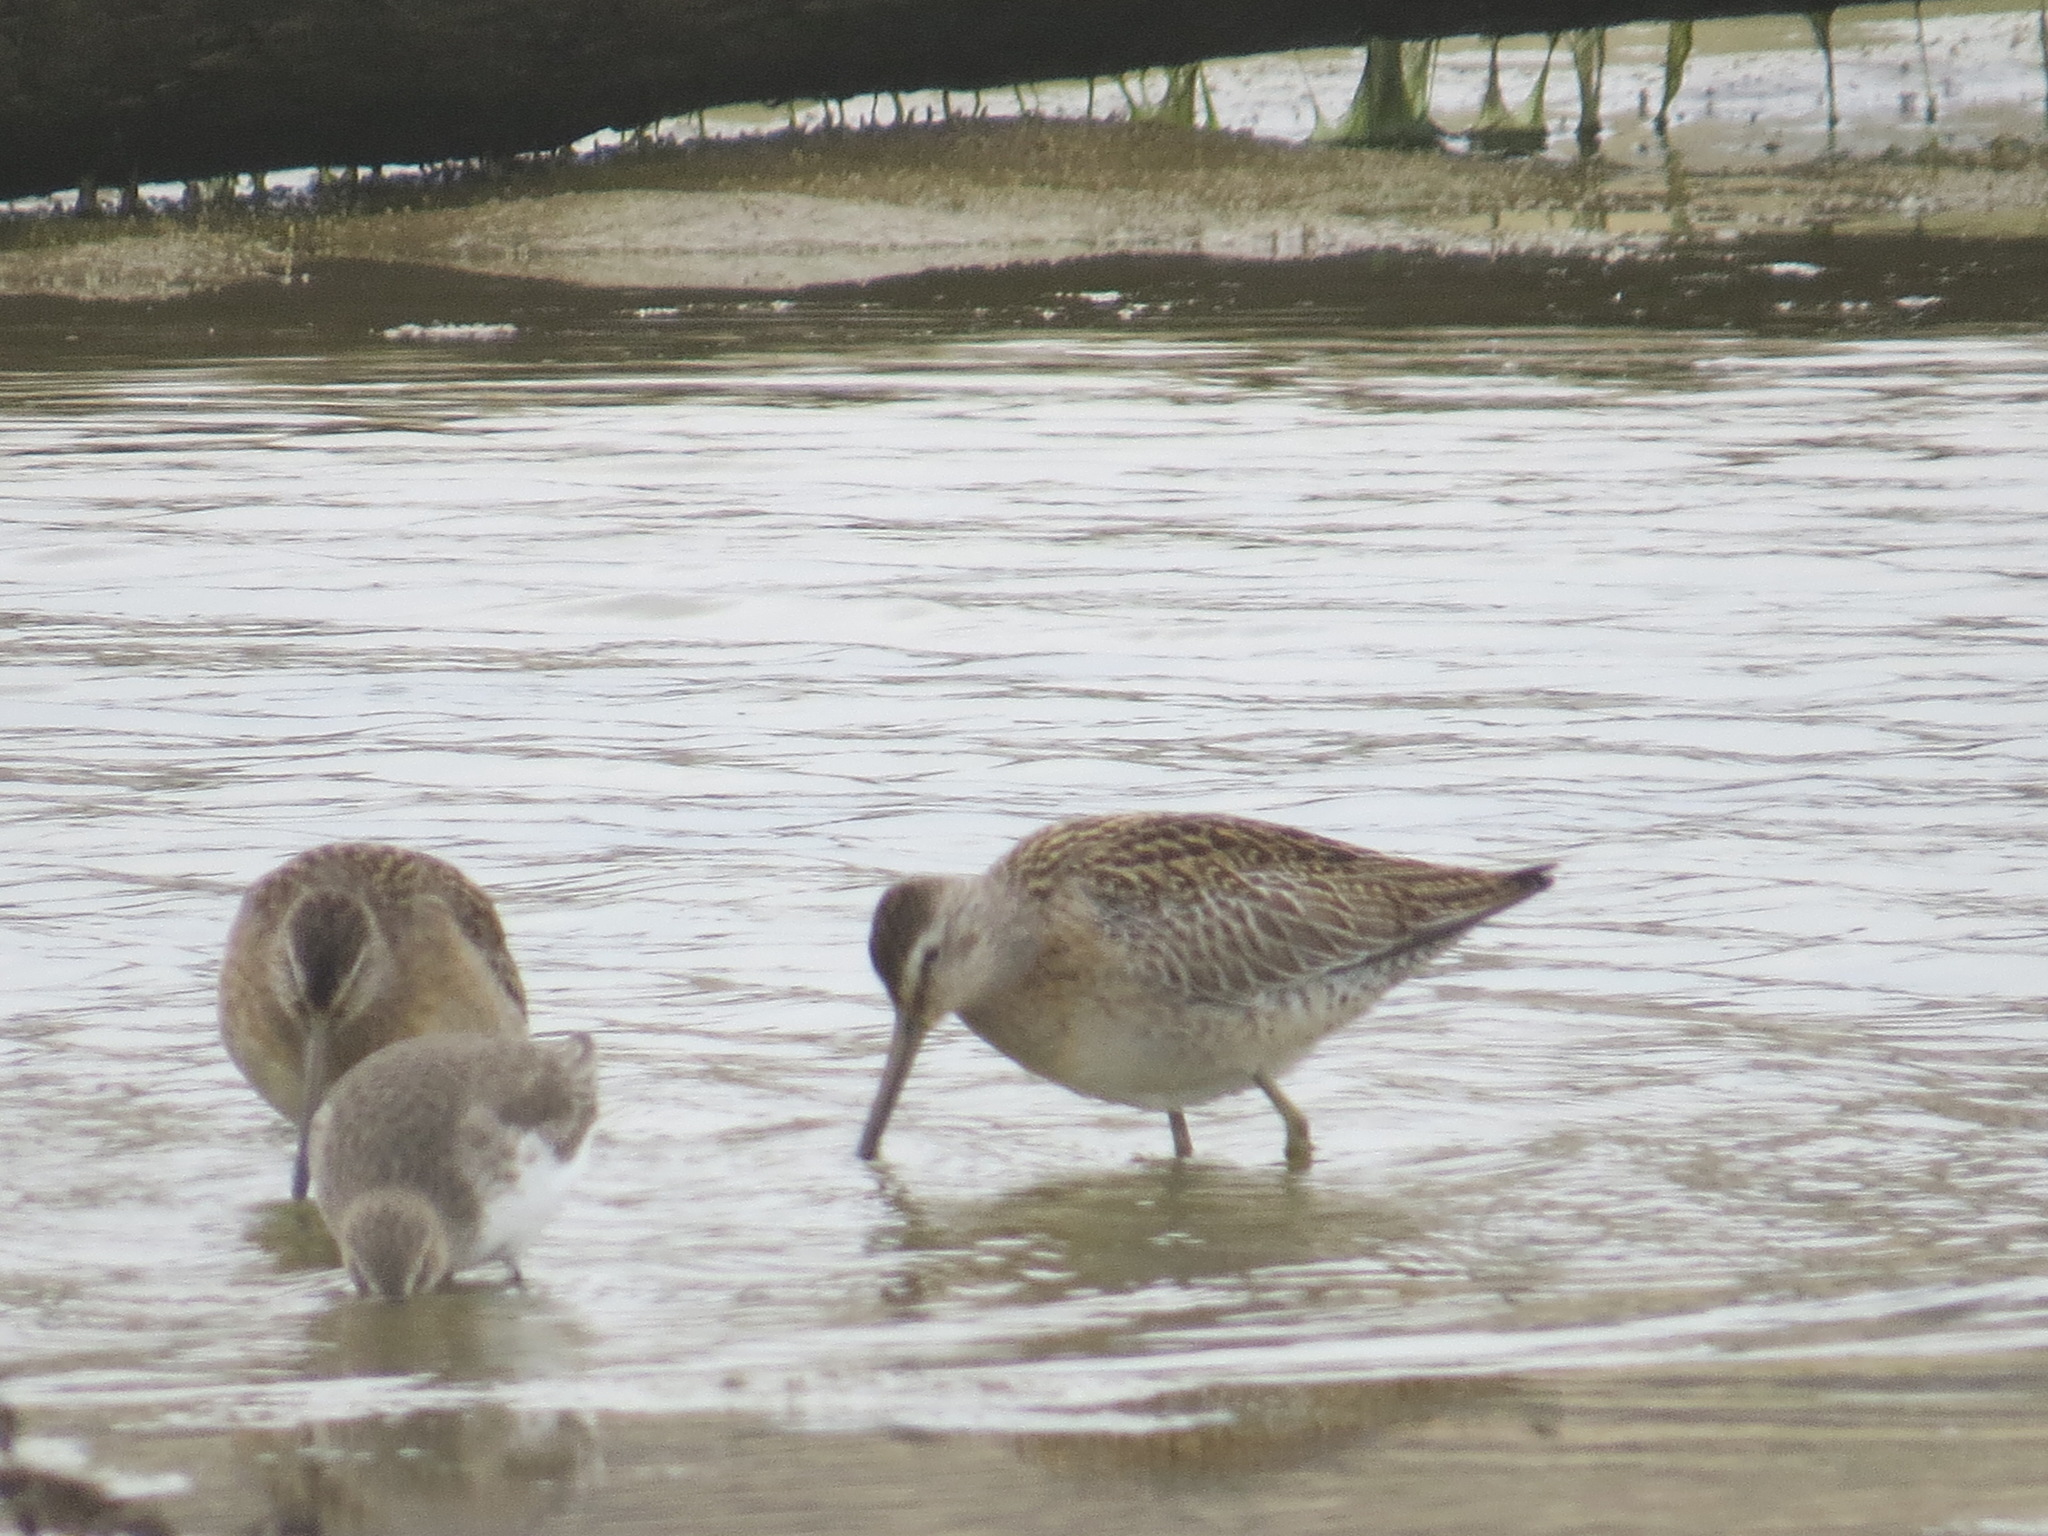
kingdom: Animalia
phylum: Chordata
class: Aves
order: Charadriiformes
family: Scolopacidae
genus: Limnodromus
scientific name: Limnodromus griseus
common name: Short-billed dowitcher
